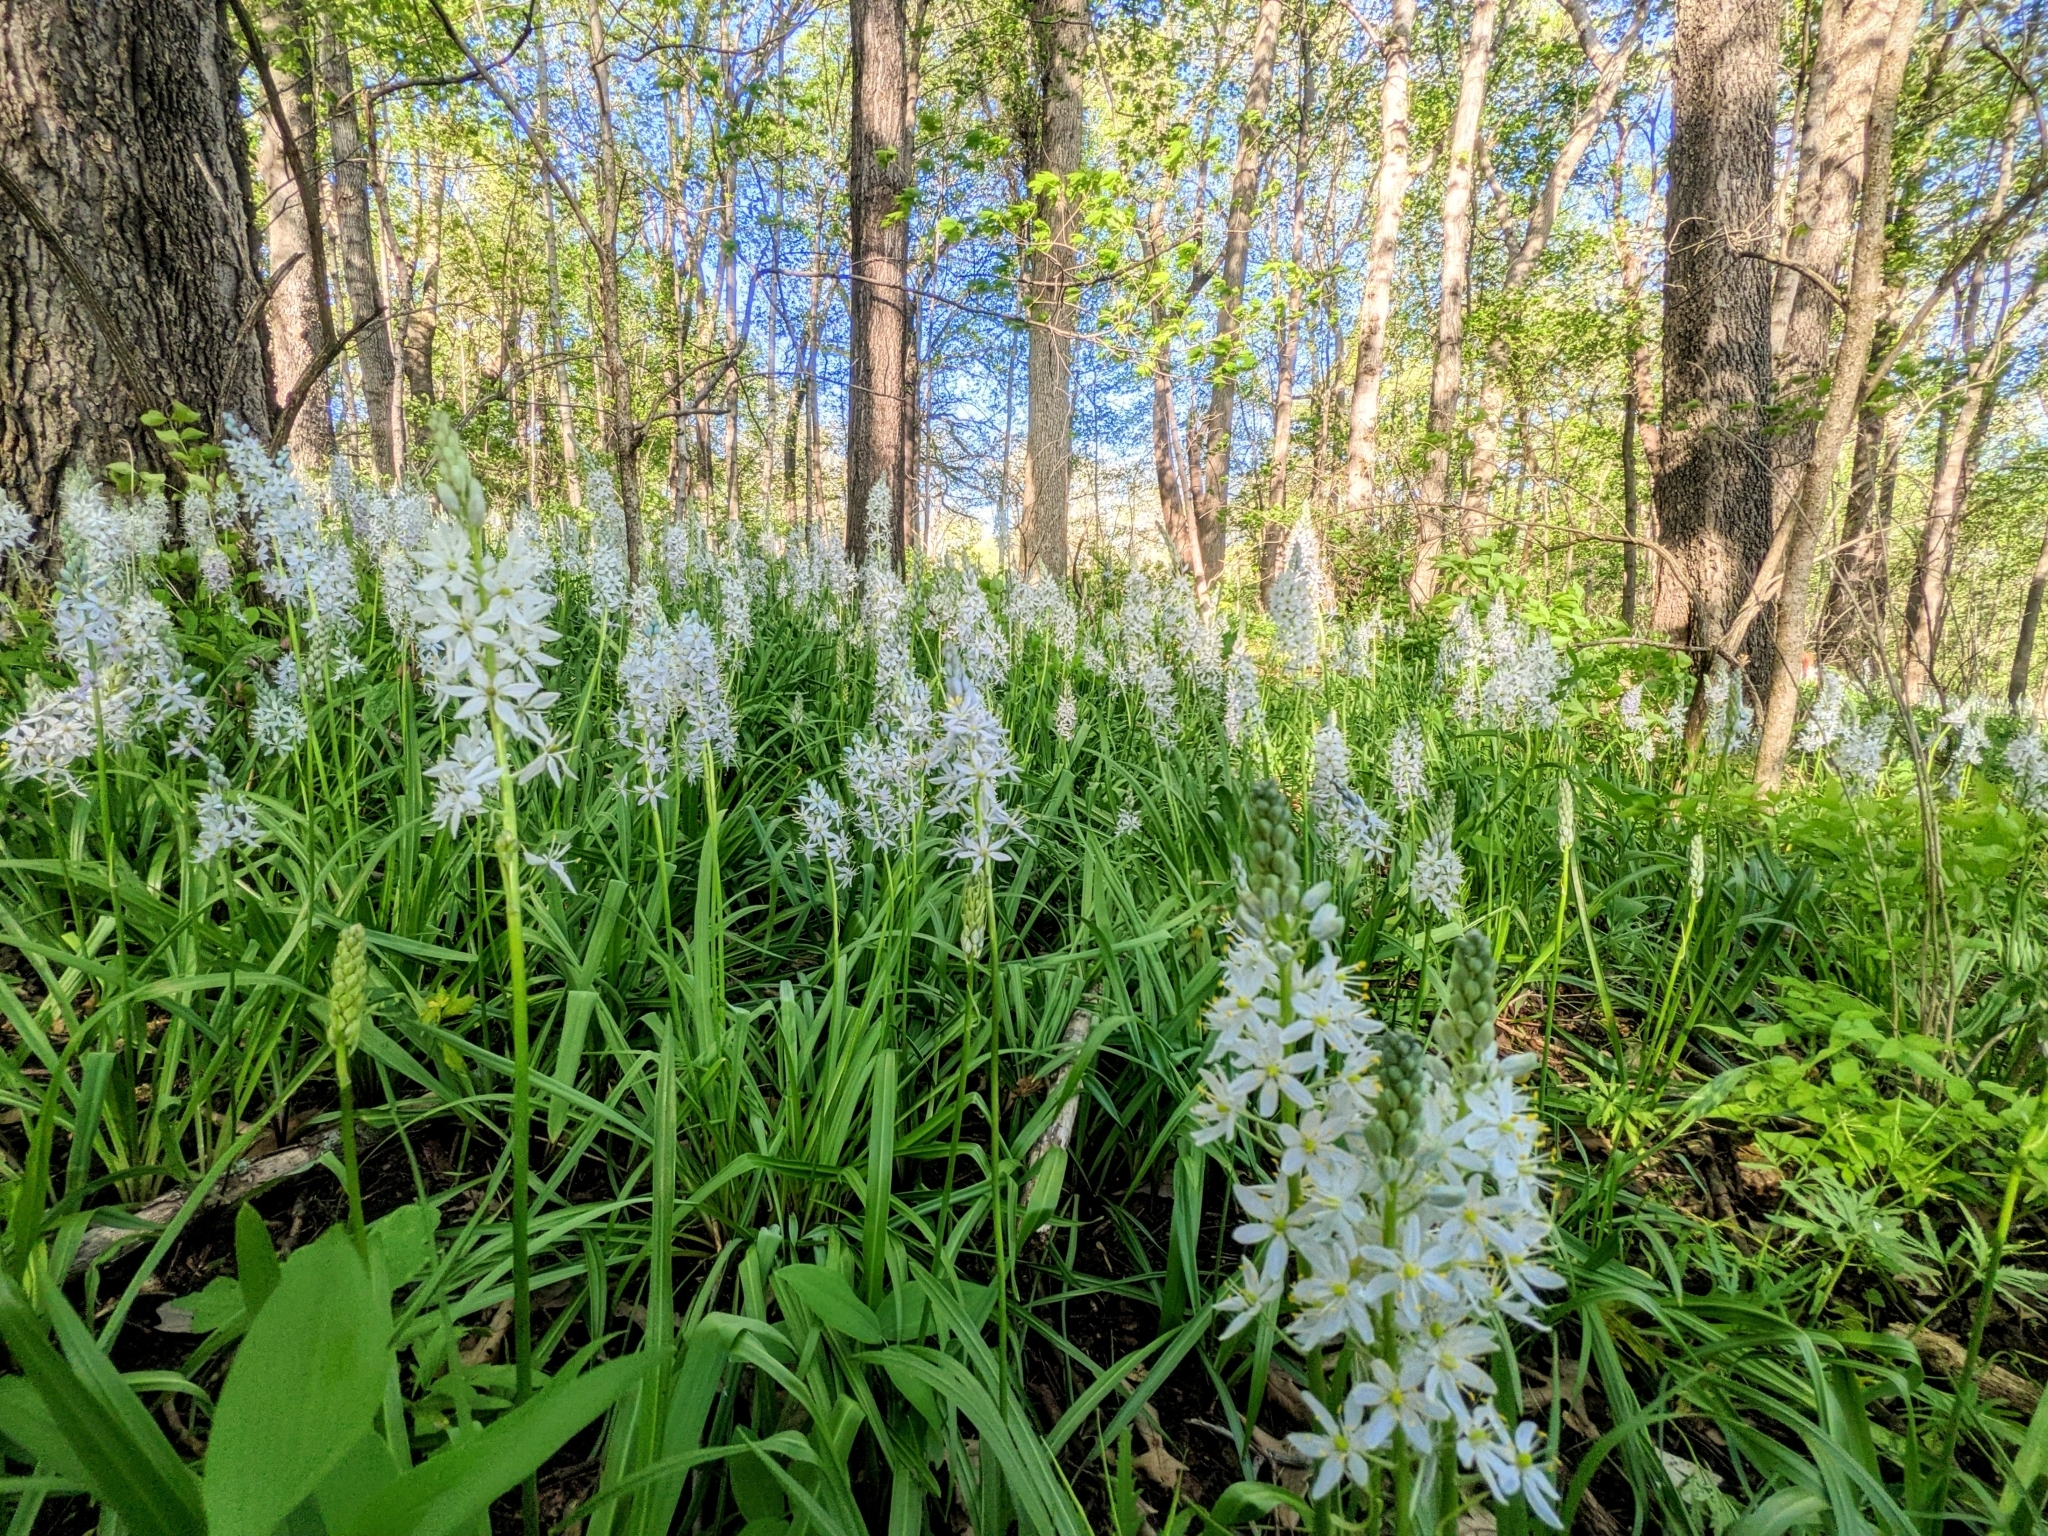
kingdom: Plantae
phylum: Tracheophyta
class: Liliopsida
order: Asparagales
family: Asparagaceae
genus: Camassia
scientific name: Camassia scilloides
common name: Wild hyacinth
